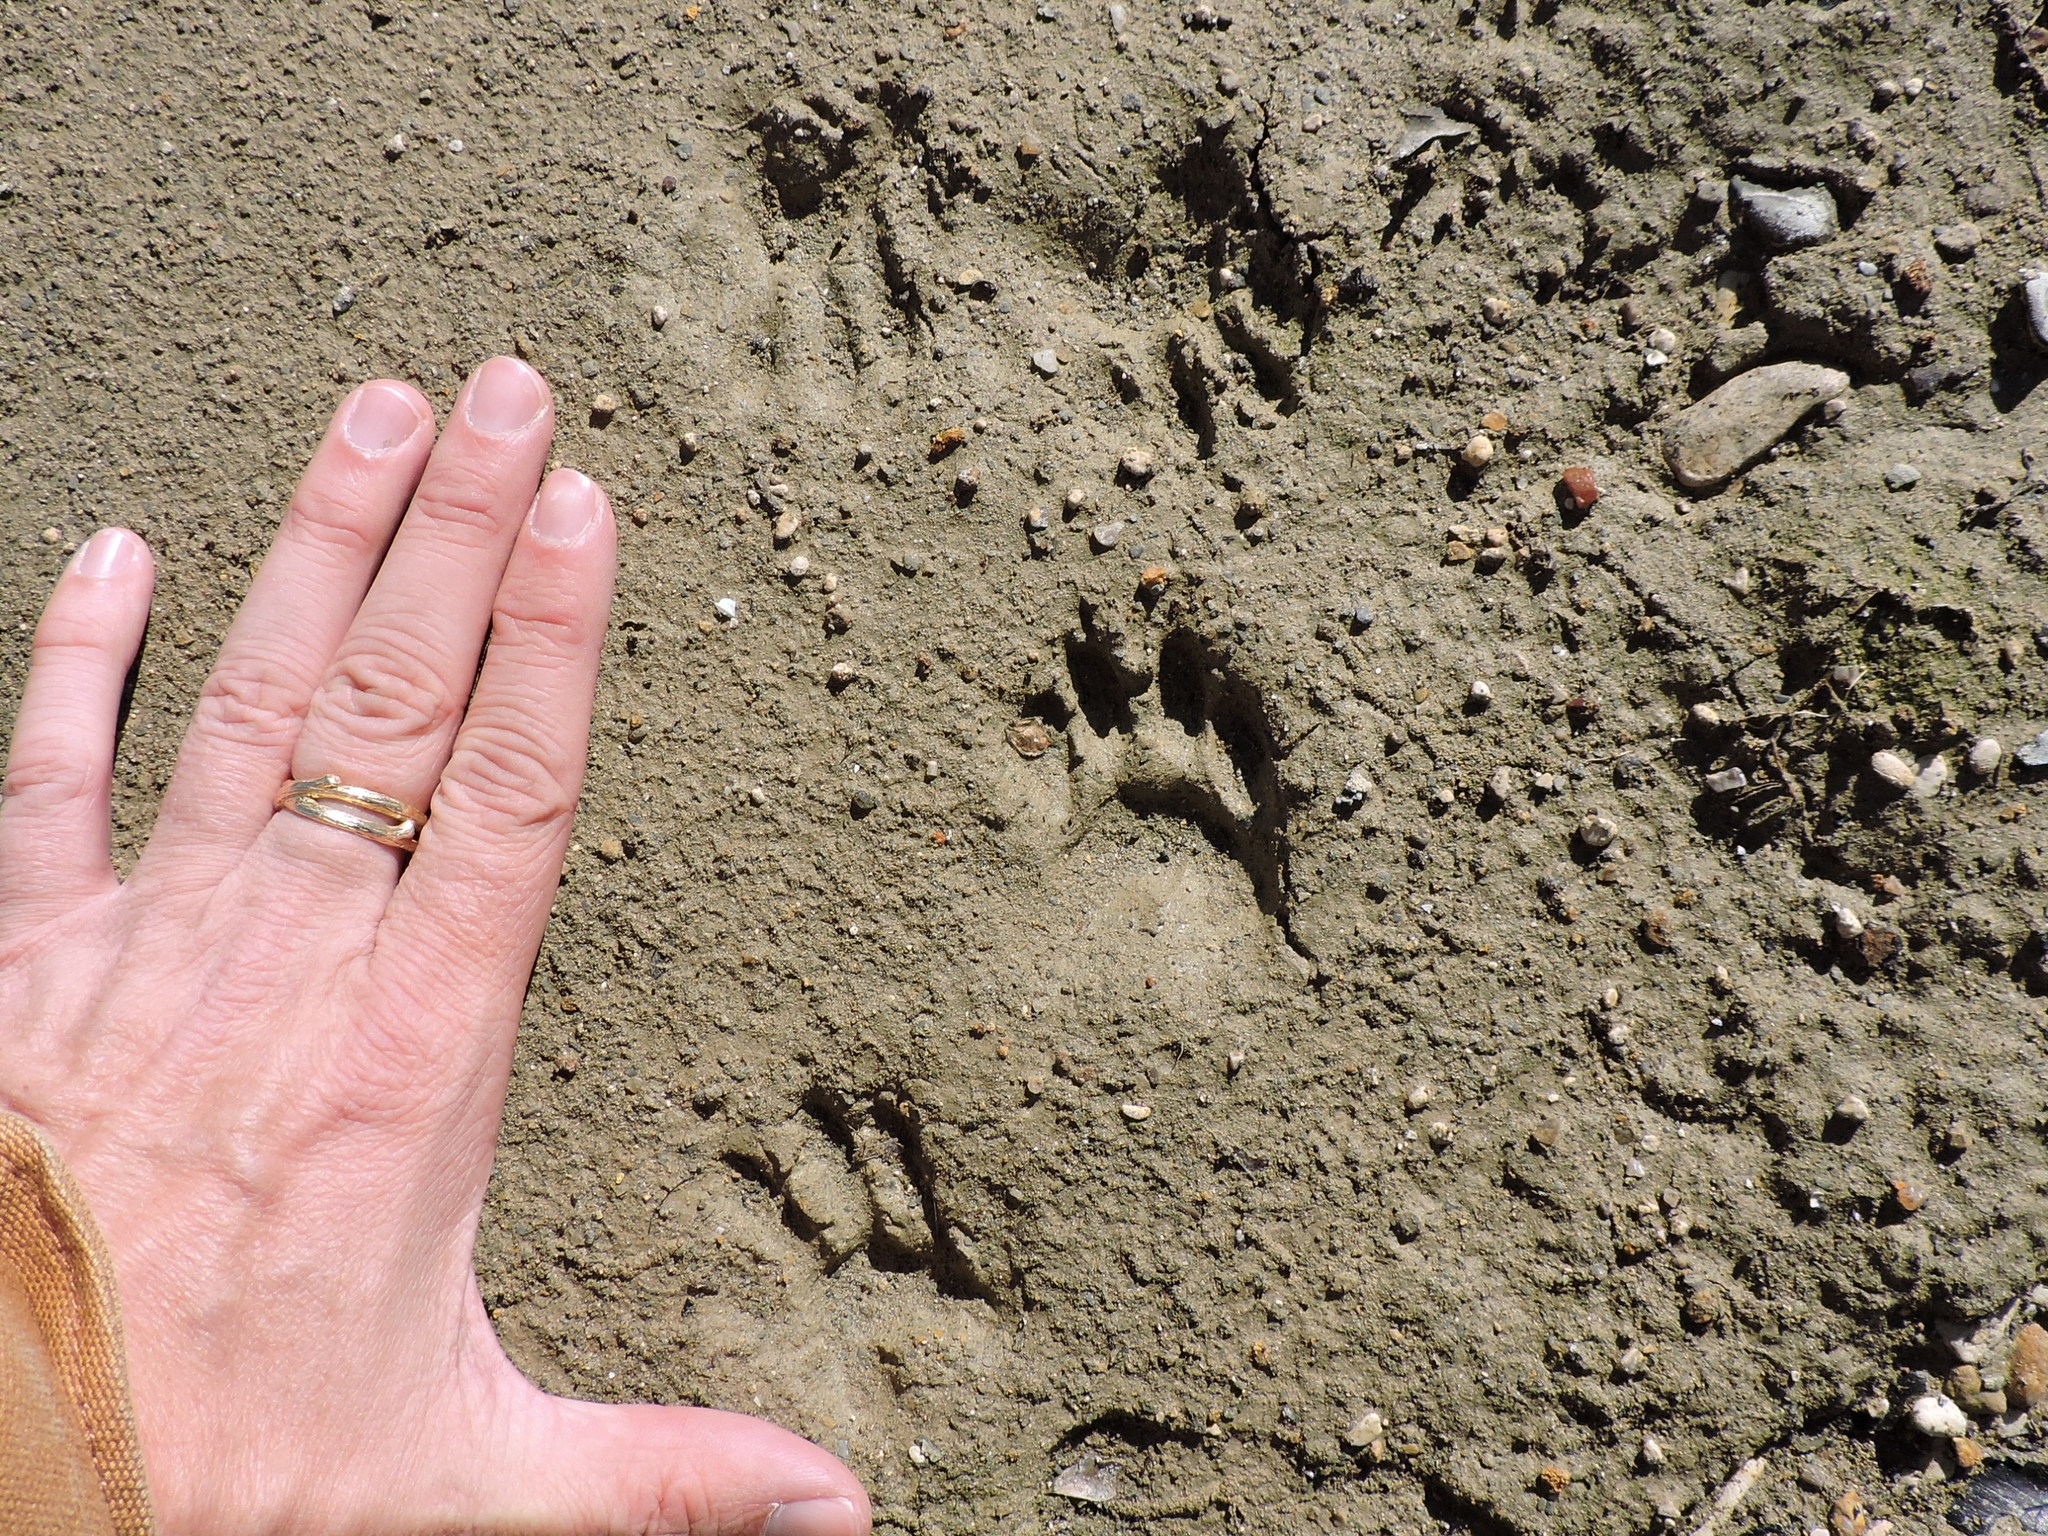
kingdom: Animalia
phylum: Chordata
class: Mammalia
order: Carnivora
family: Procyonidae
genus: Procyon
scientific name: Procyon lotor
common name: Raccoon
